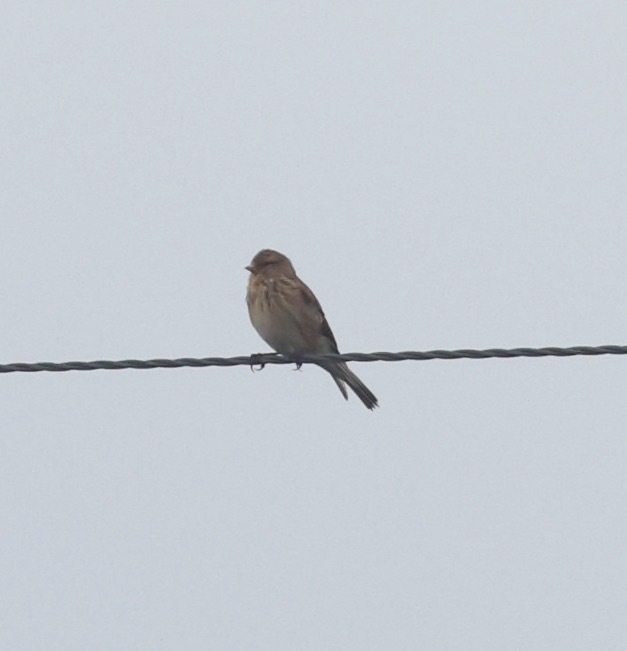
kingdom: Animalia
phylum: Chordata
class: Aves
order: Passeriformes
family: Fringillidae
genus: Linaria
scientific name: Linaria flavirostris
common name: Twite
